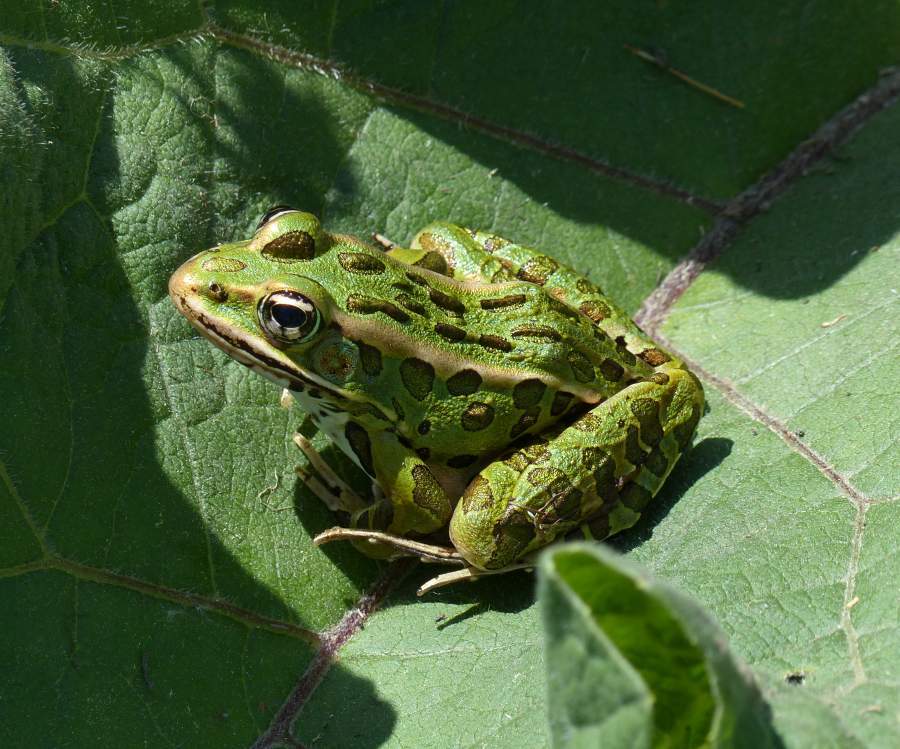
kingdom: Animalia
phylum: Chordata
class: Amphibia
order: Anura
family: Ranidae
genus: Lithobates
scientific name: Lithobates pipiens
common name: Northern leopard frog
